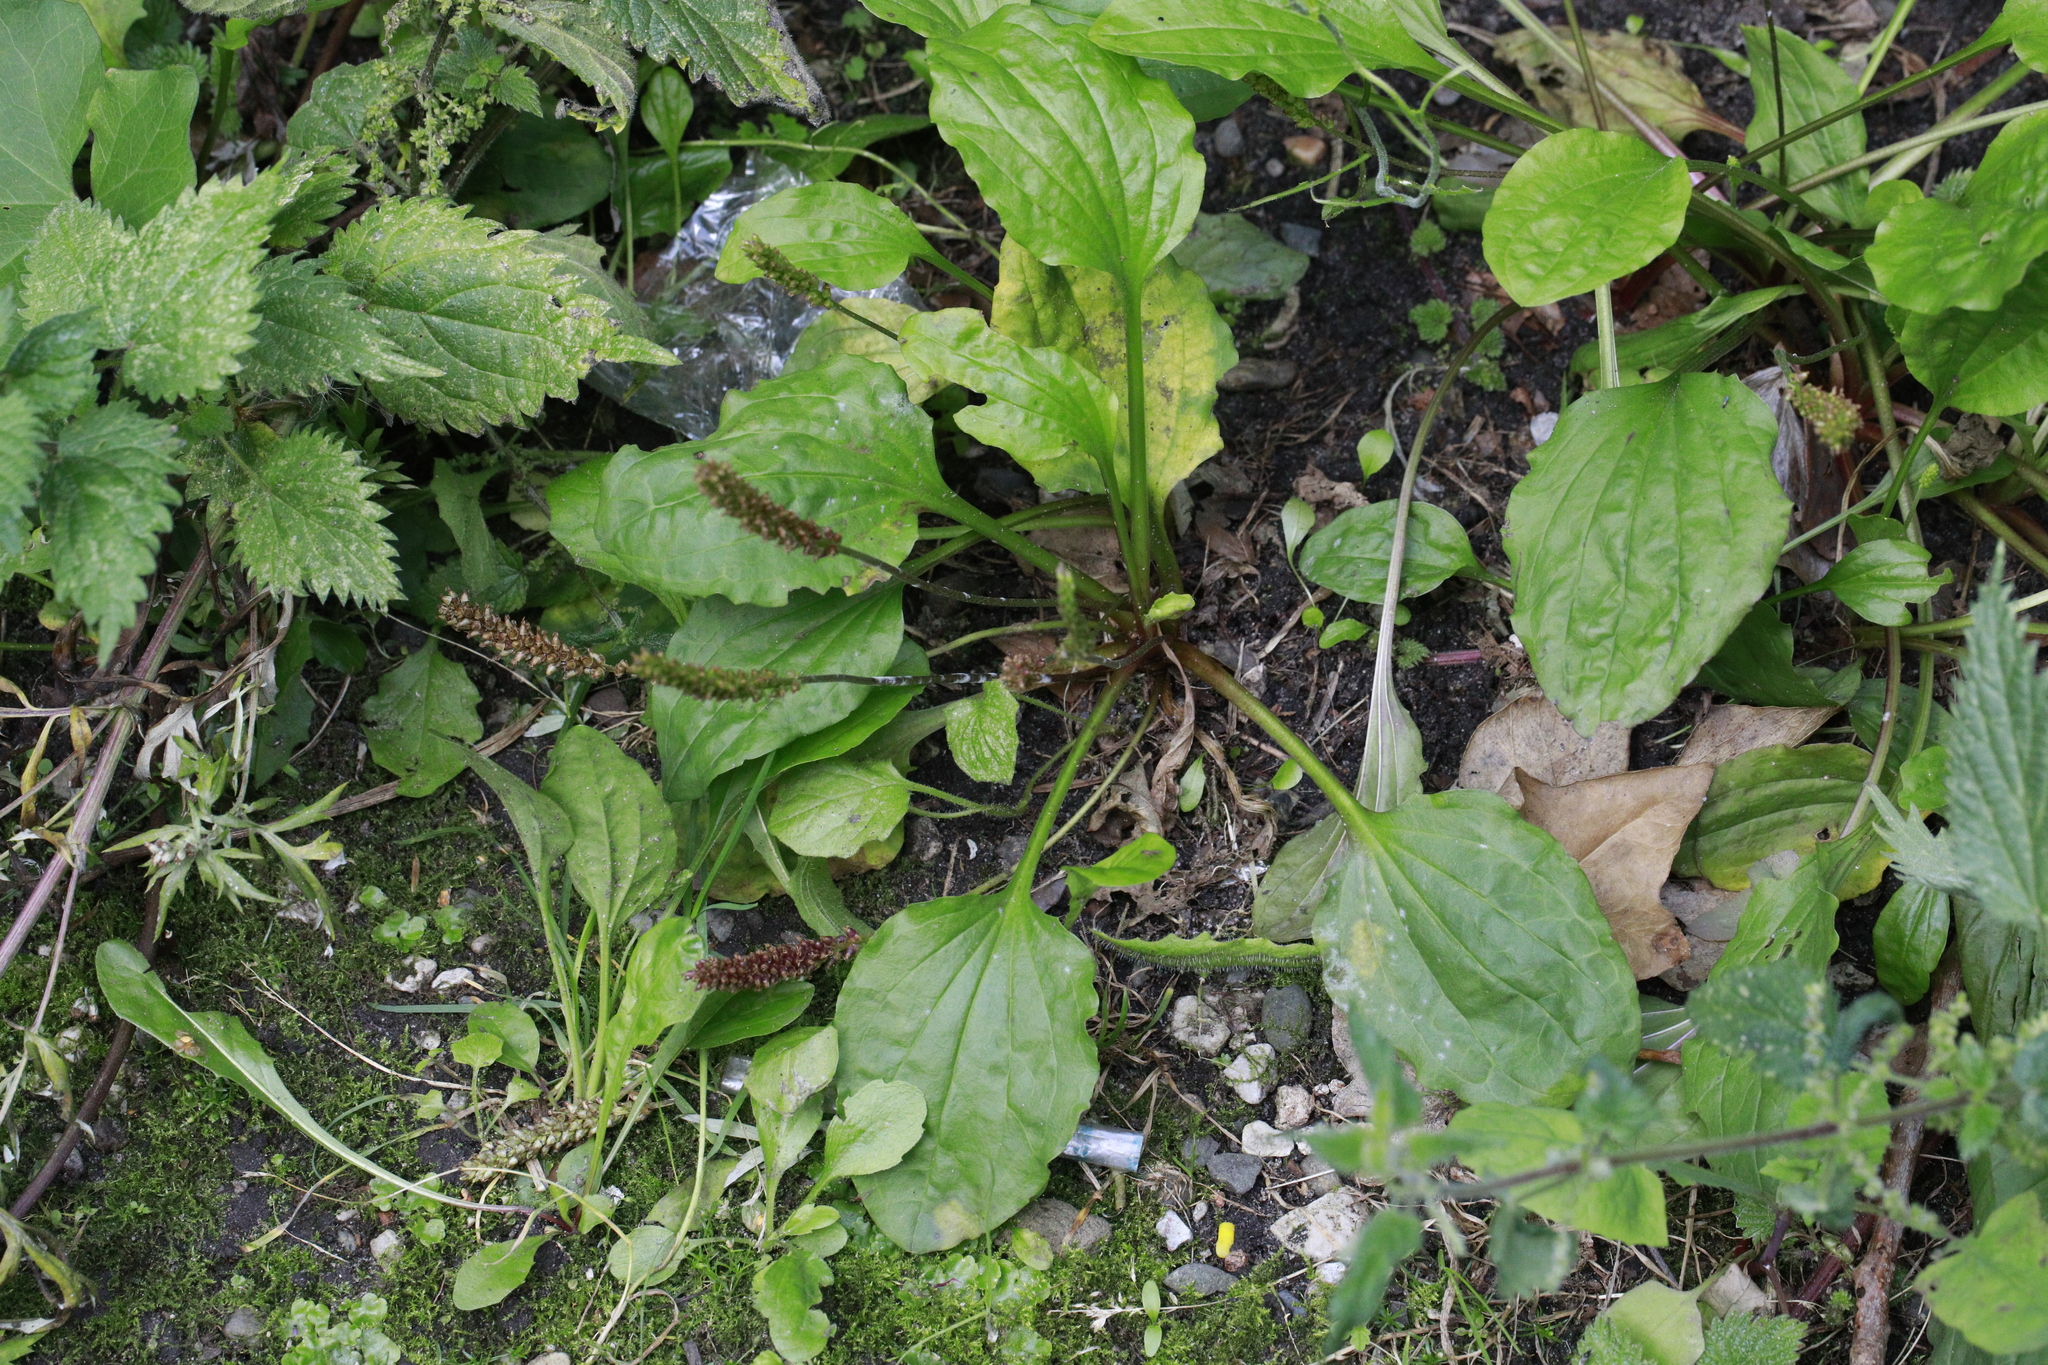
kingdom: Plantae
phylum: Tracheophyta
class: Magnoliopsida
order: Lamiales
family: Plantaginaceae
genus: Plantago
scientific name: Plantago major
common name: Common plantain
